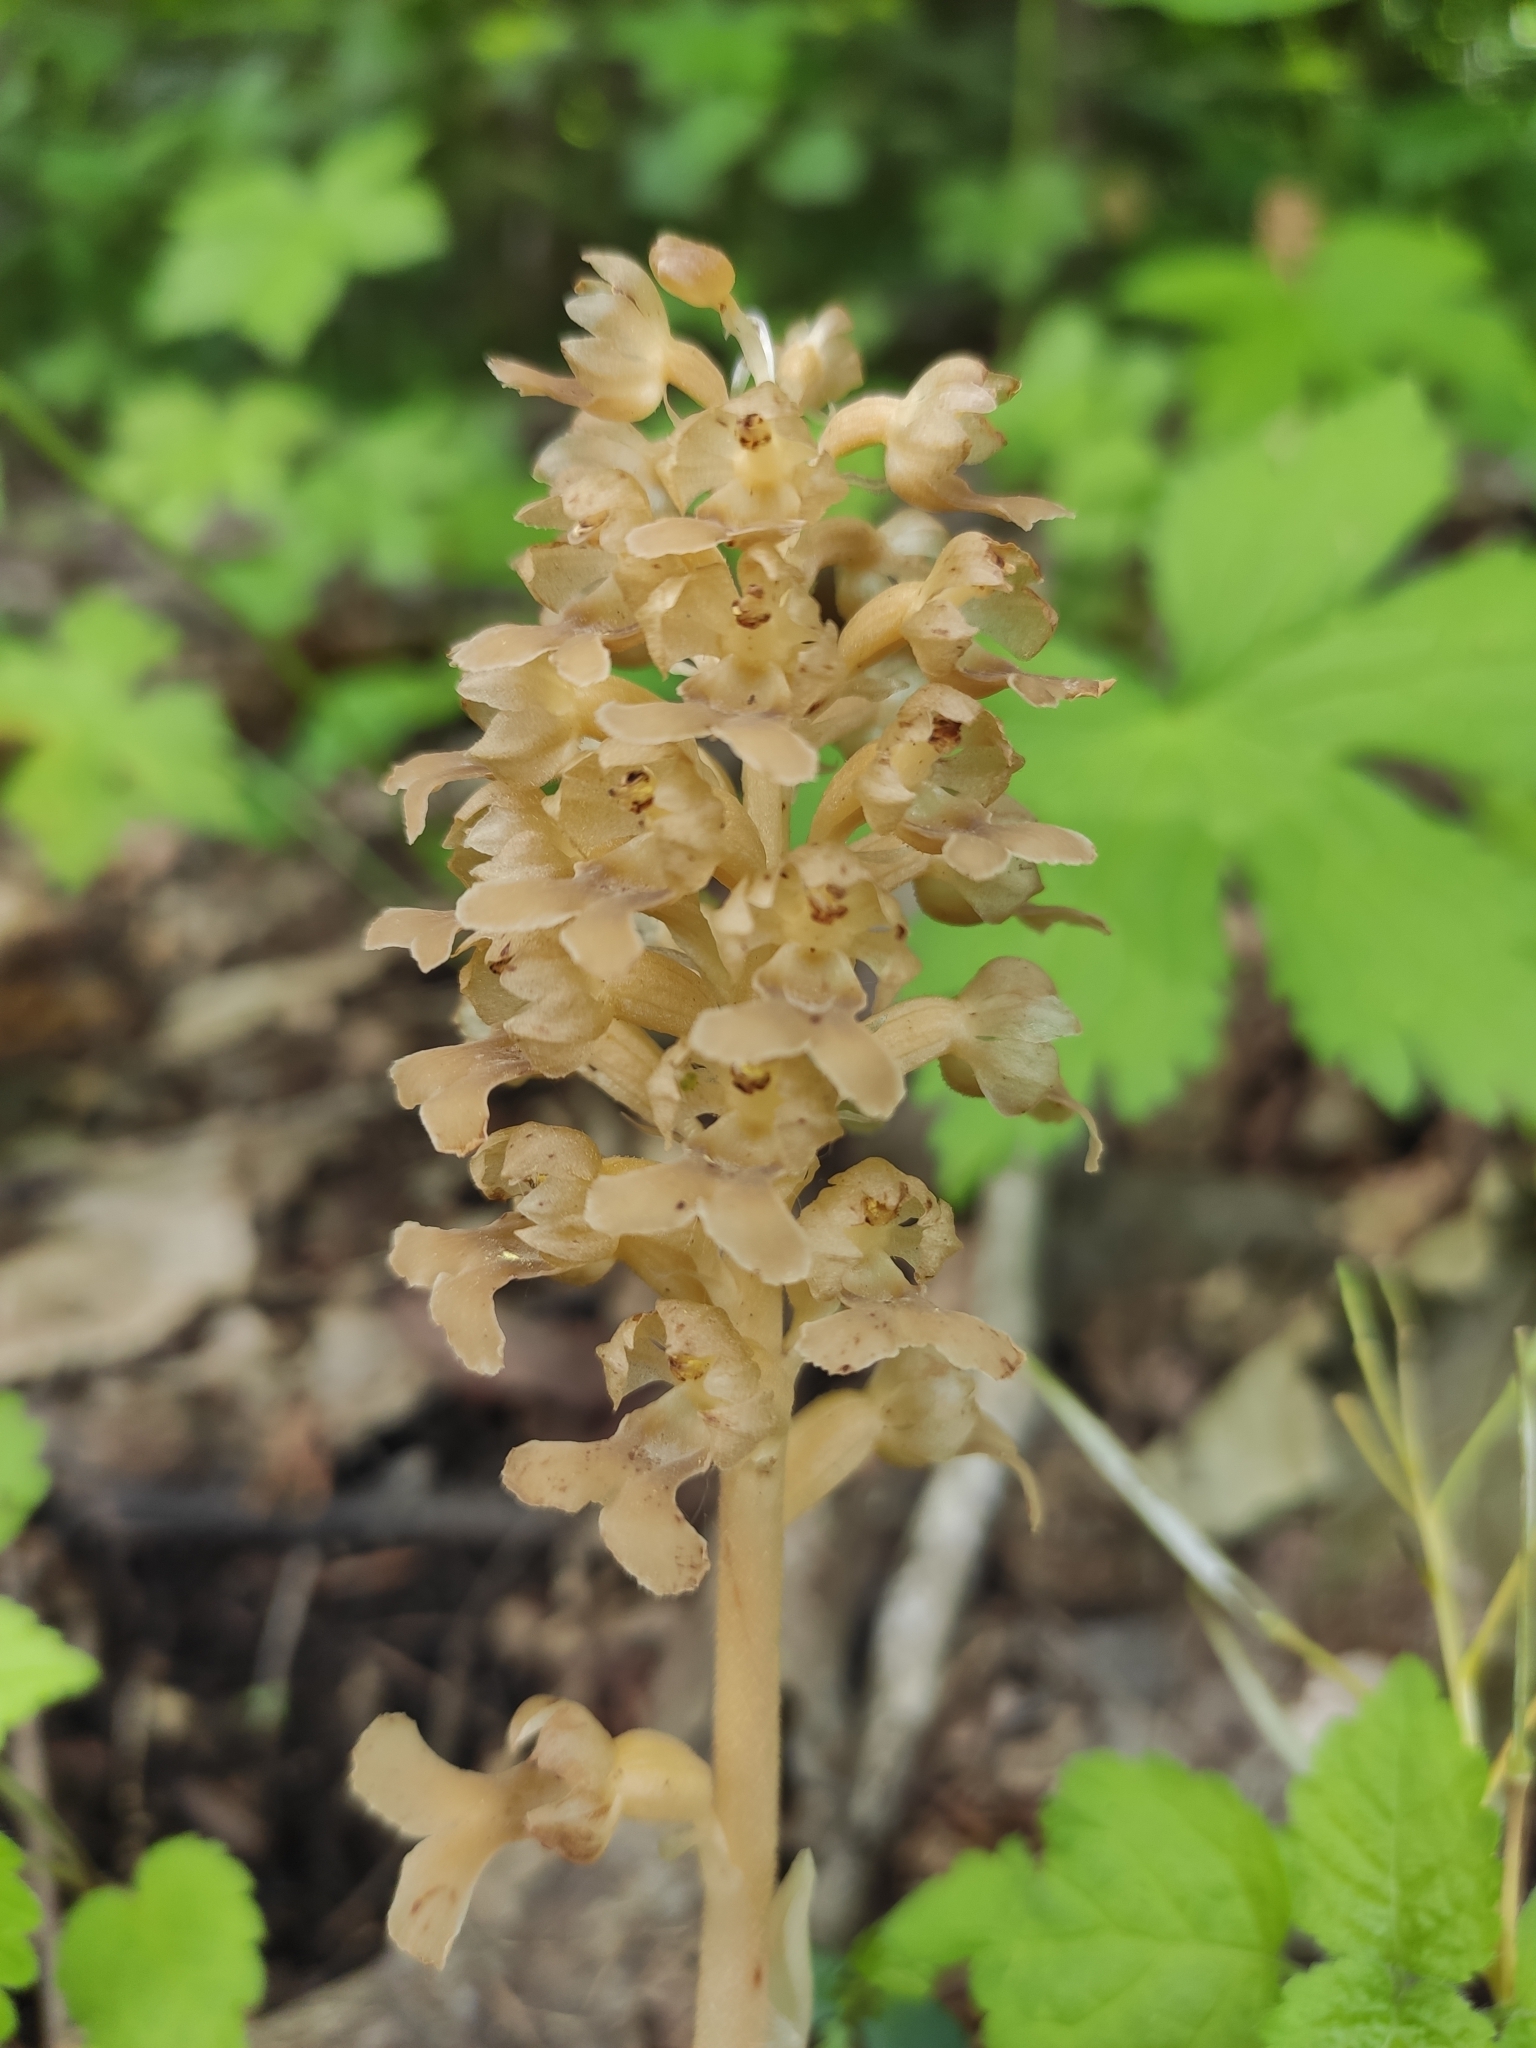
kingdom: Plantae
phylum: Tracheophyta
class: Liliopsida
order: Asparagales
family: Orchidaceae
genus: Neottia
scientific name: Neottia nidus-avis
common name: Bird's-nest orchid
